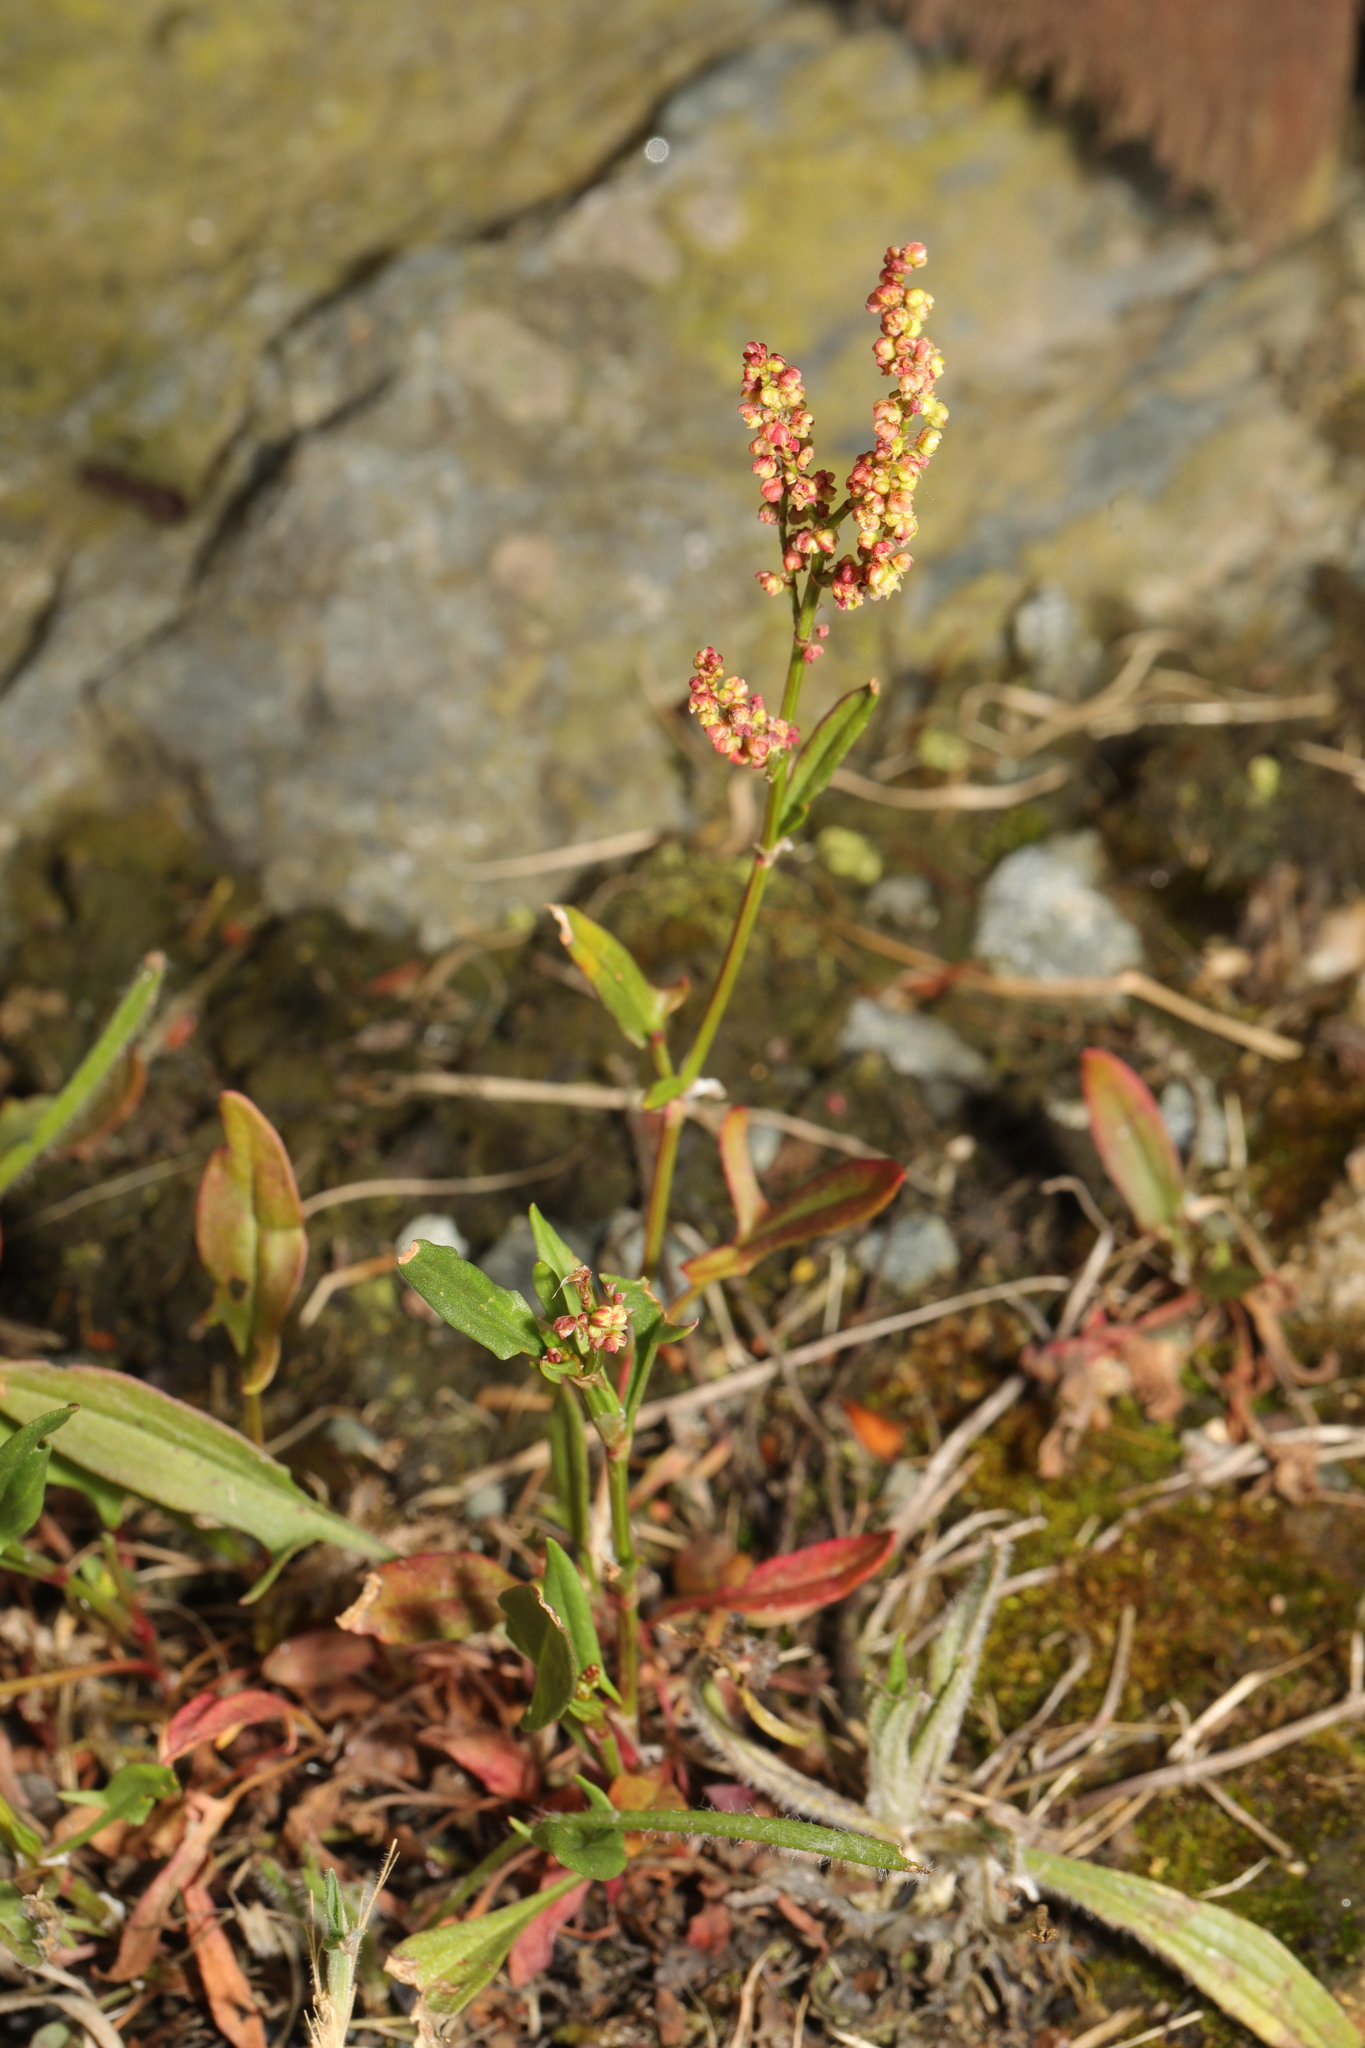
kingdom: Plantae
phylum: Tracheophyta
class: Magnoliopsida
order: Caryophyllales
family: Polygonaceae
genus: Rumex
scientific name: Rumex acetosella
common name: Common sheep sorrel
